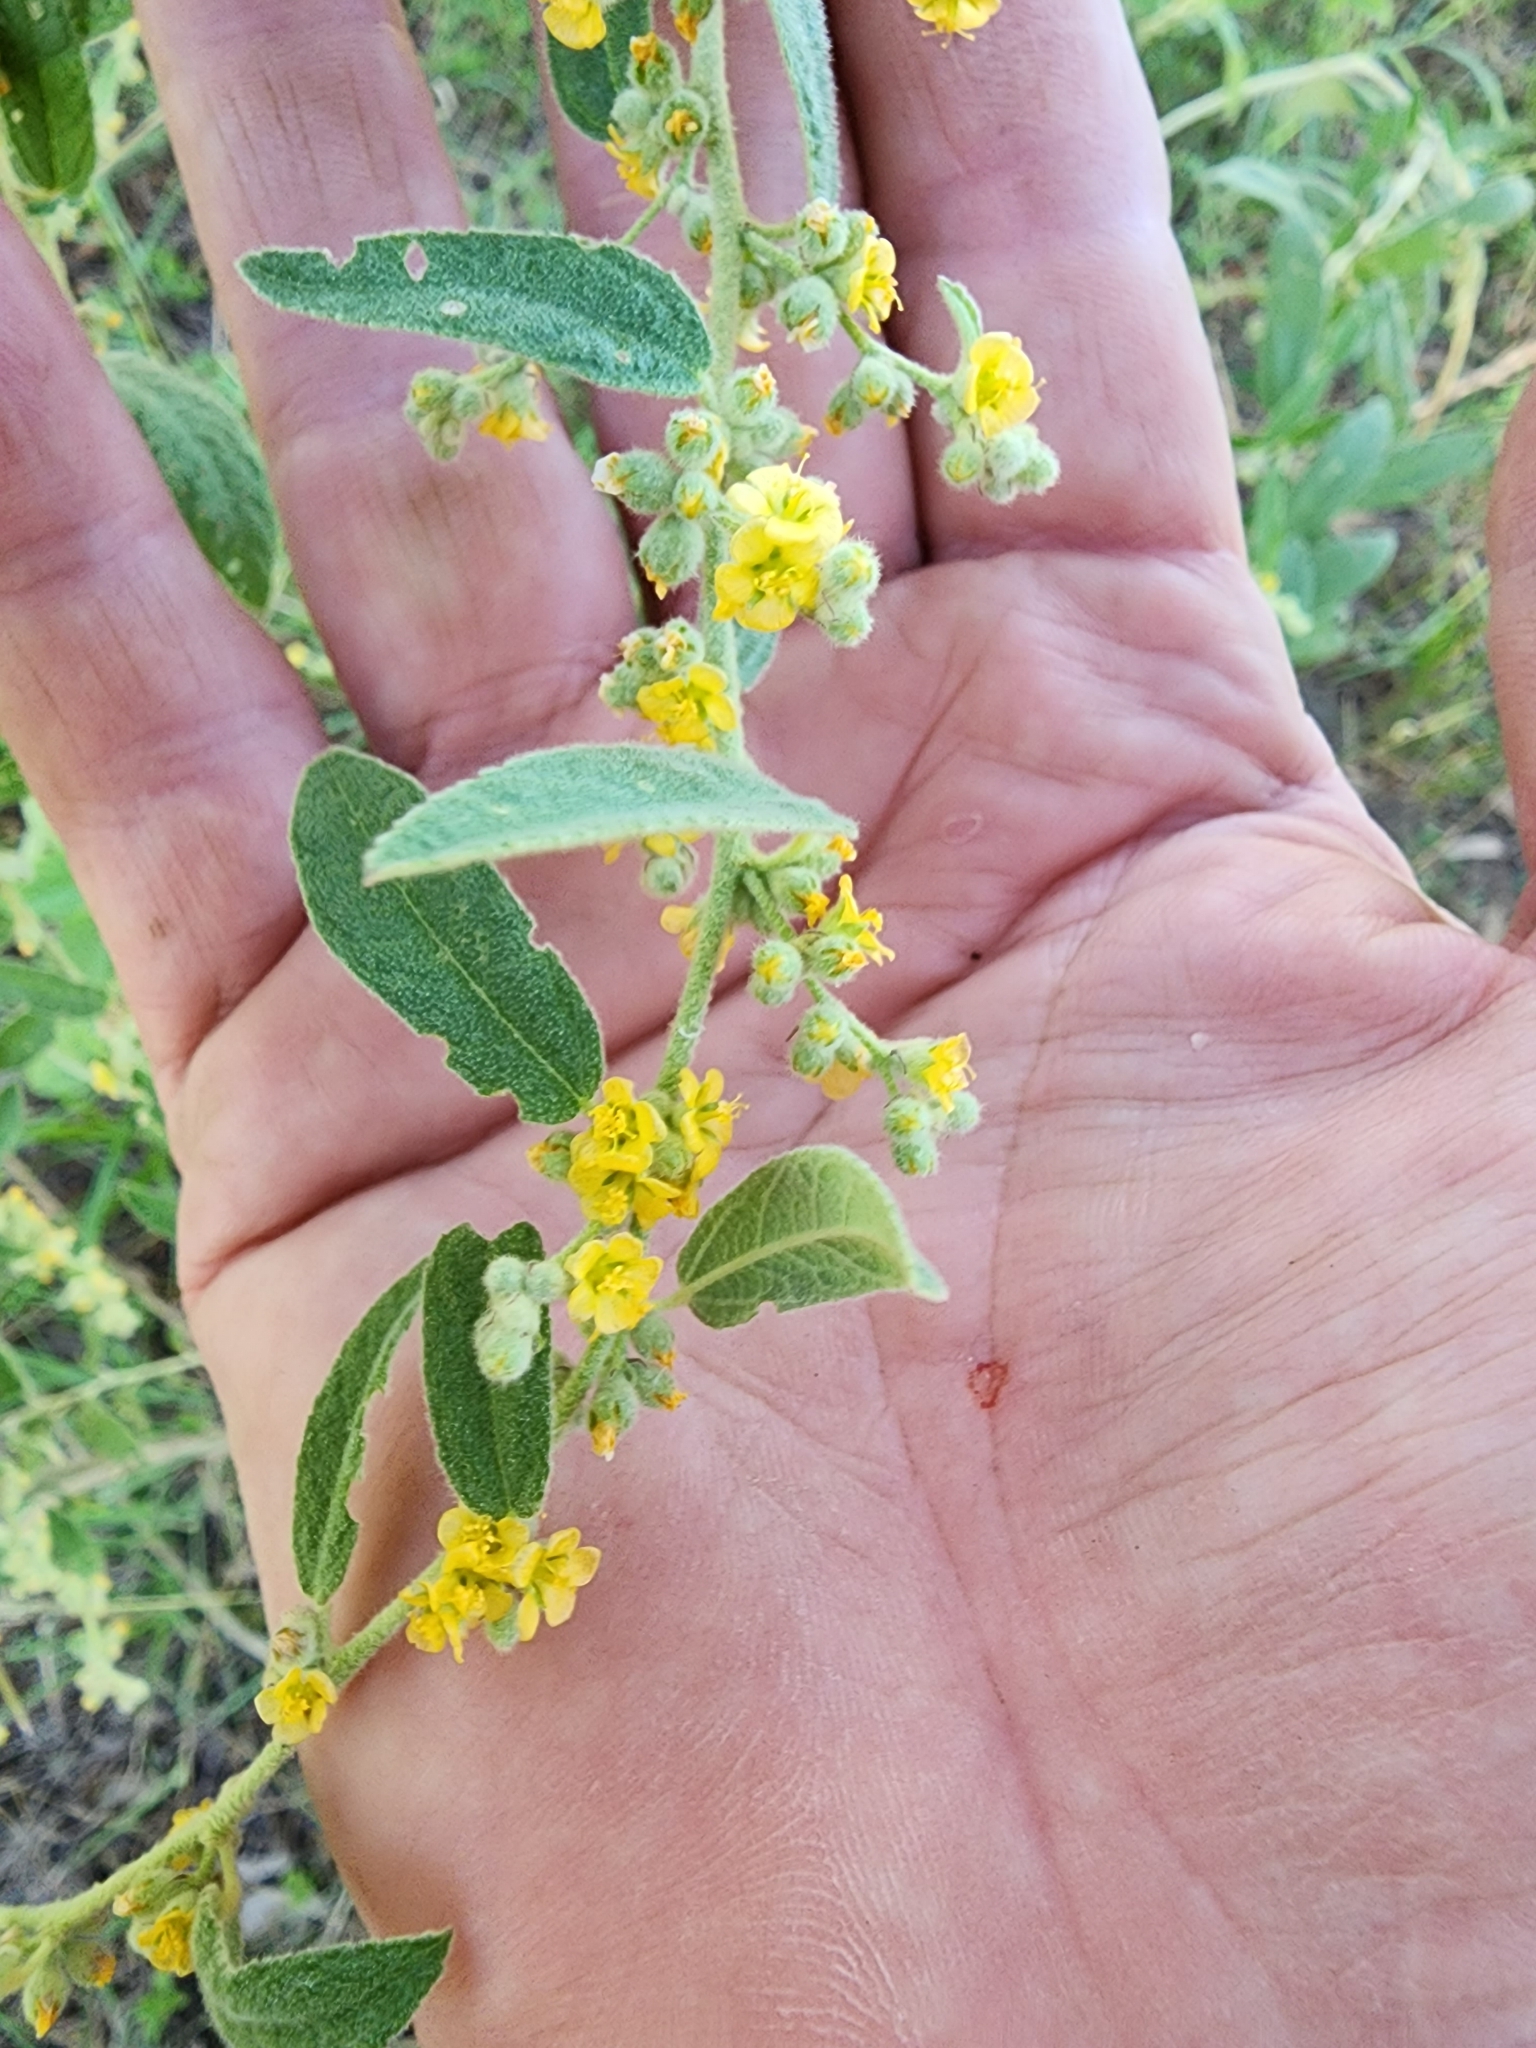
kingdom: Plantae
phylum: Tracheophyta
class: Magnoliopsida
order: Malvales
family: Malvaceae
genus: Sida
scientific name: Sida hackettiana
